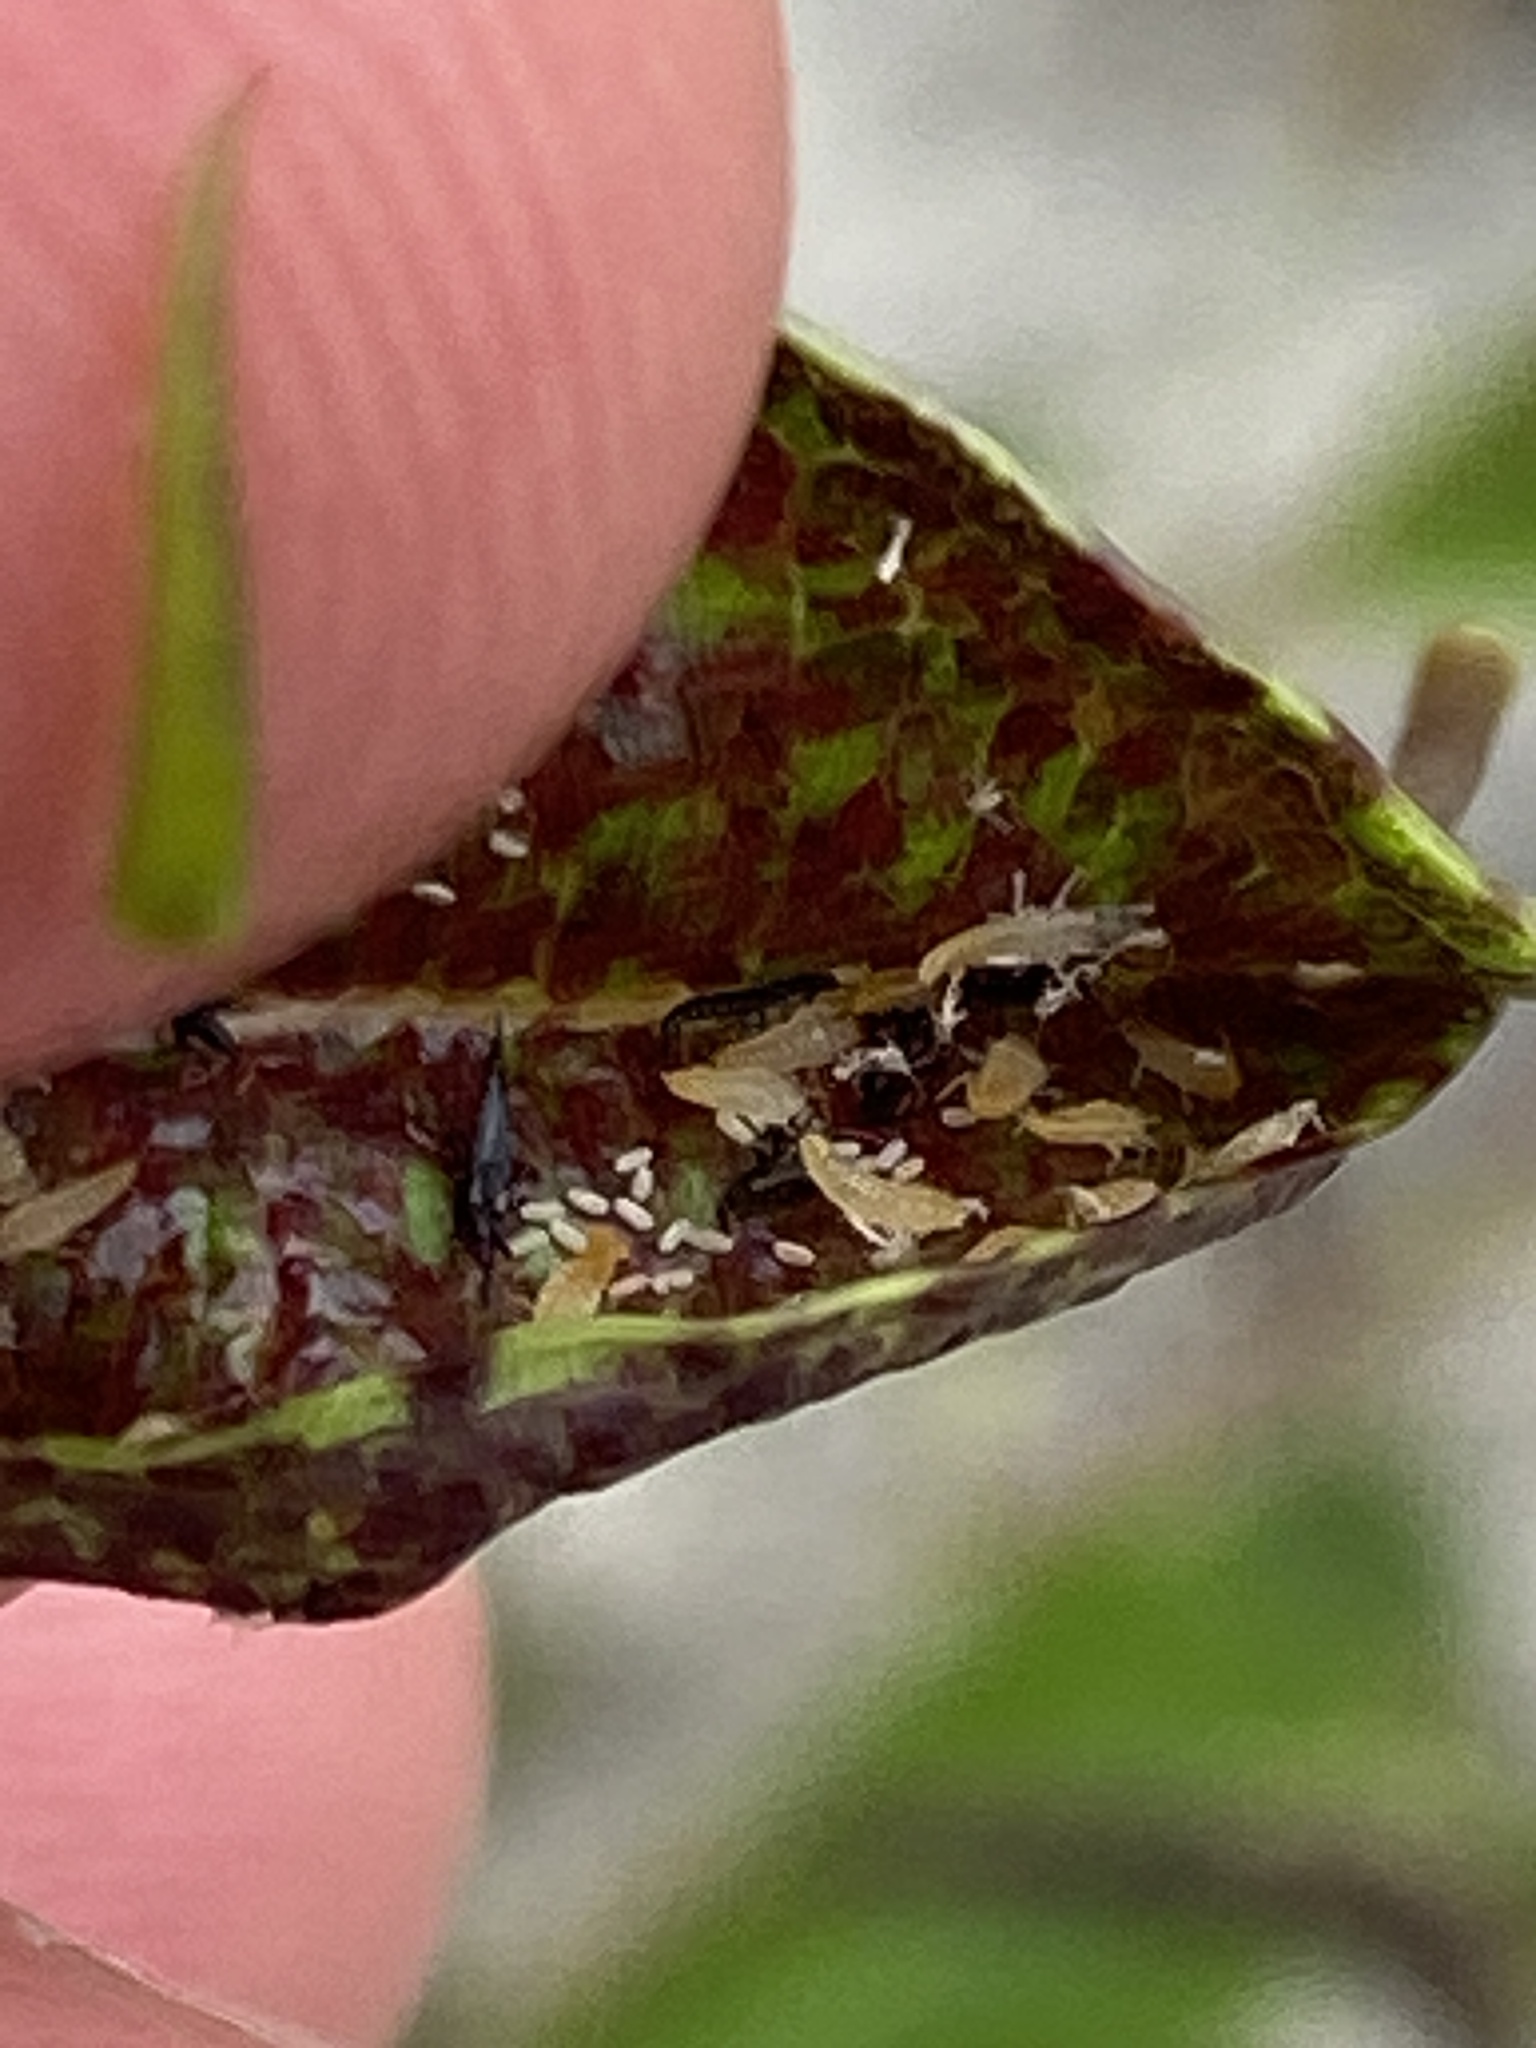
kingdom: Animalia
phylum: Arthropoda
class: Insecta
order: Thysanoptera
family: Phlaeothripidae
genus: Gynaikothrips
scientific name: Gynaikothrips ficorum
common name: Cuban laurel thrips
